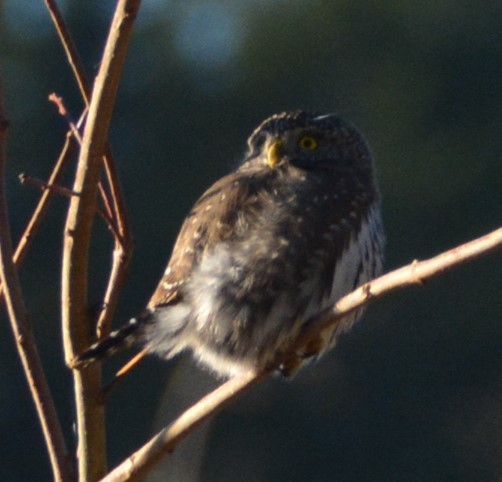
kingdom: Animalia
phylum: Chordata
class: Aves
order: Strigiformes
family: Strigidae
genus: Glaucidium
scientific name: Glaucidium gnoma
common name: Northern pygmy-owl
